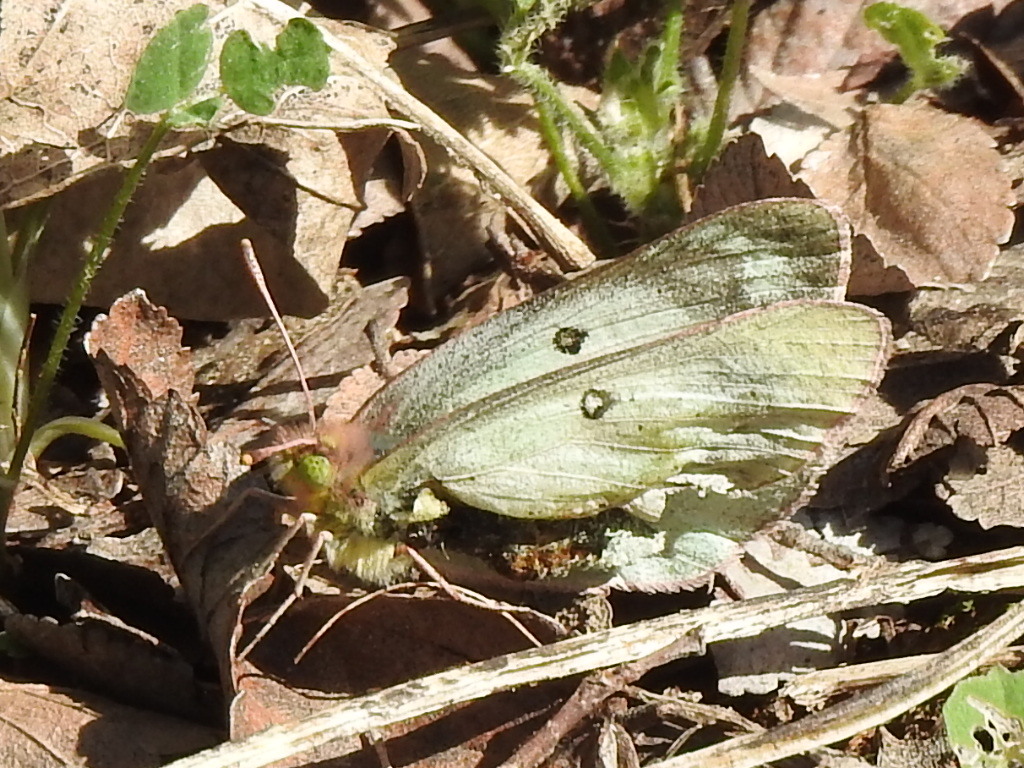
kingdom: Animalia
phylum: Arthropoda
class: Insecta
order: Lepidoptera
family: Pieridae
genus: Colias
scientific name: Colias eurytheme
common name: Alfalfa butterfly
